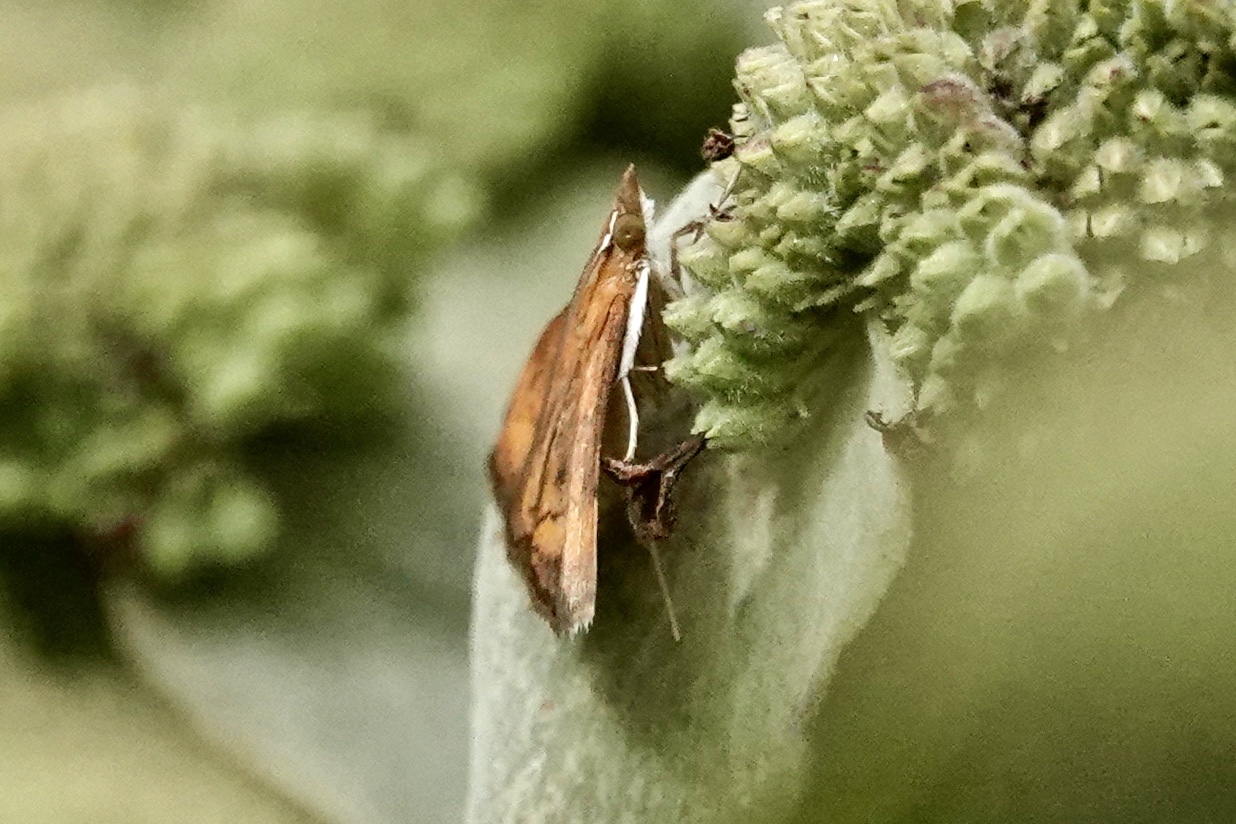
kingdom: Animalia
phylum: Arthropoda
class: Insecta
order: Lepidoptera
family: Crambidae
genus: Pyrausta
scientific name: Pyrausta rubricalis
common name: Variable reddish pyrausta
